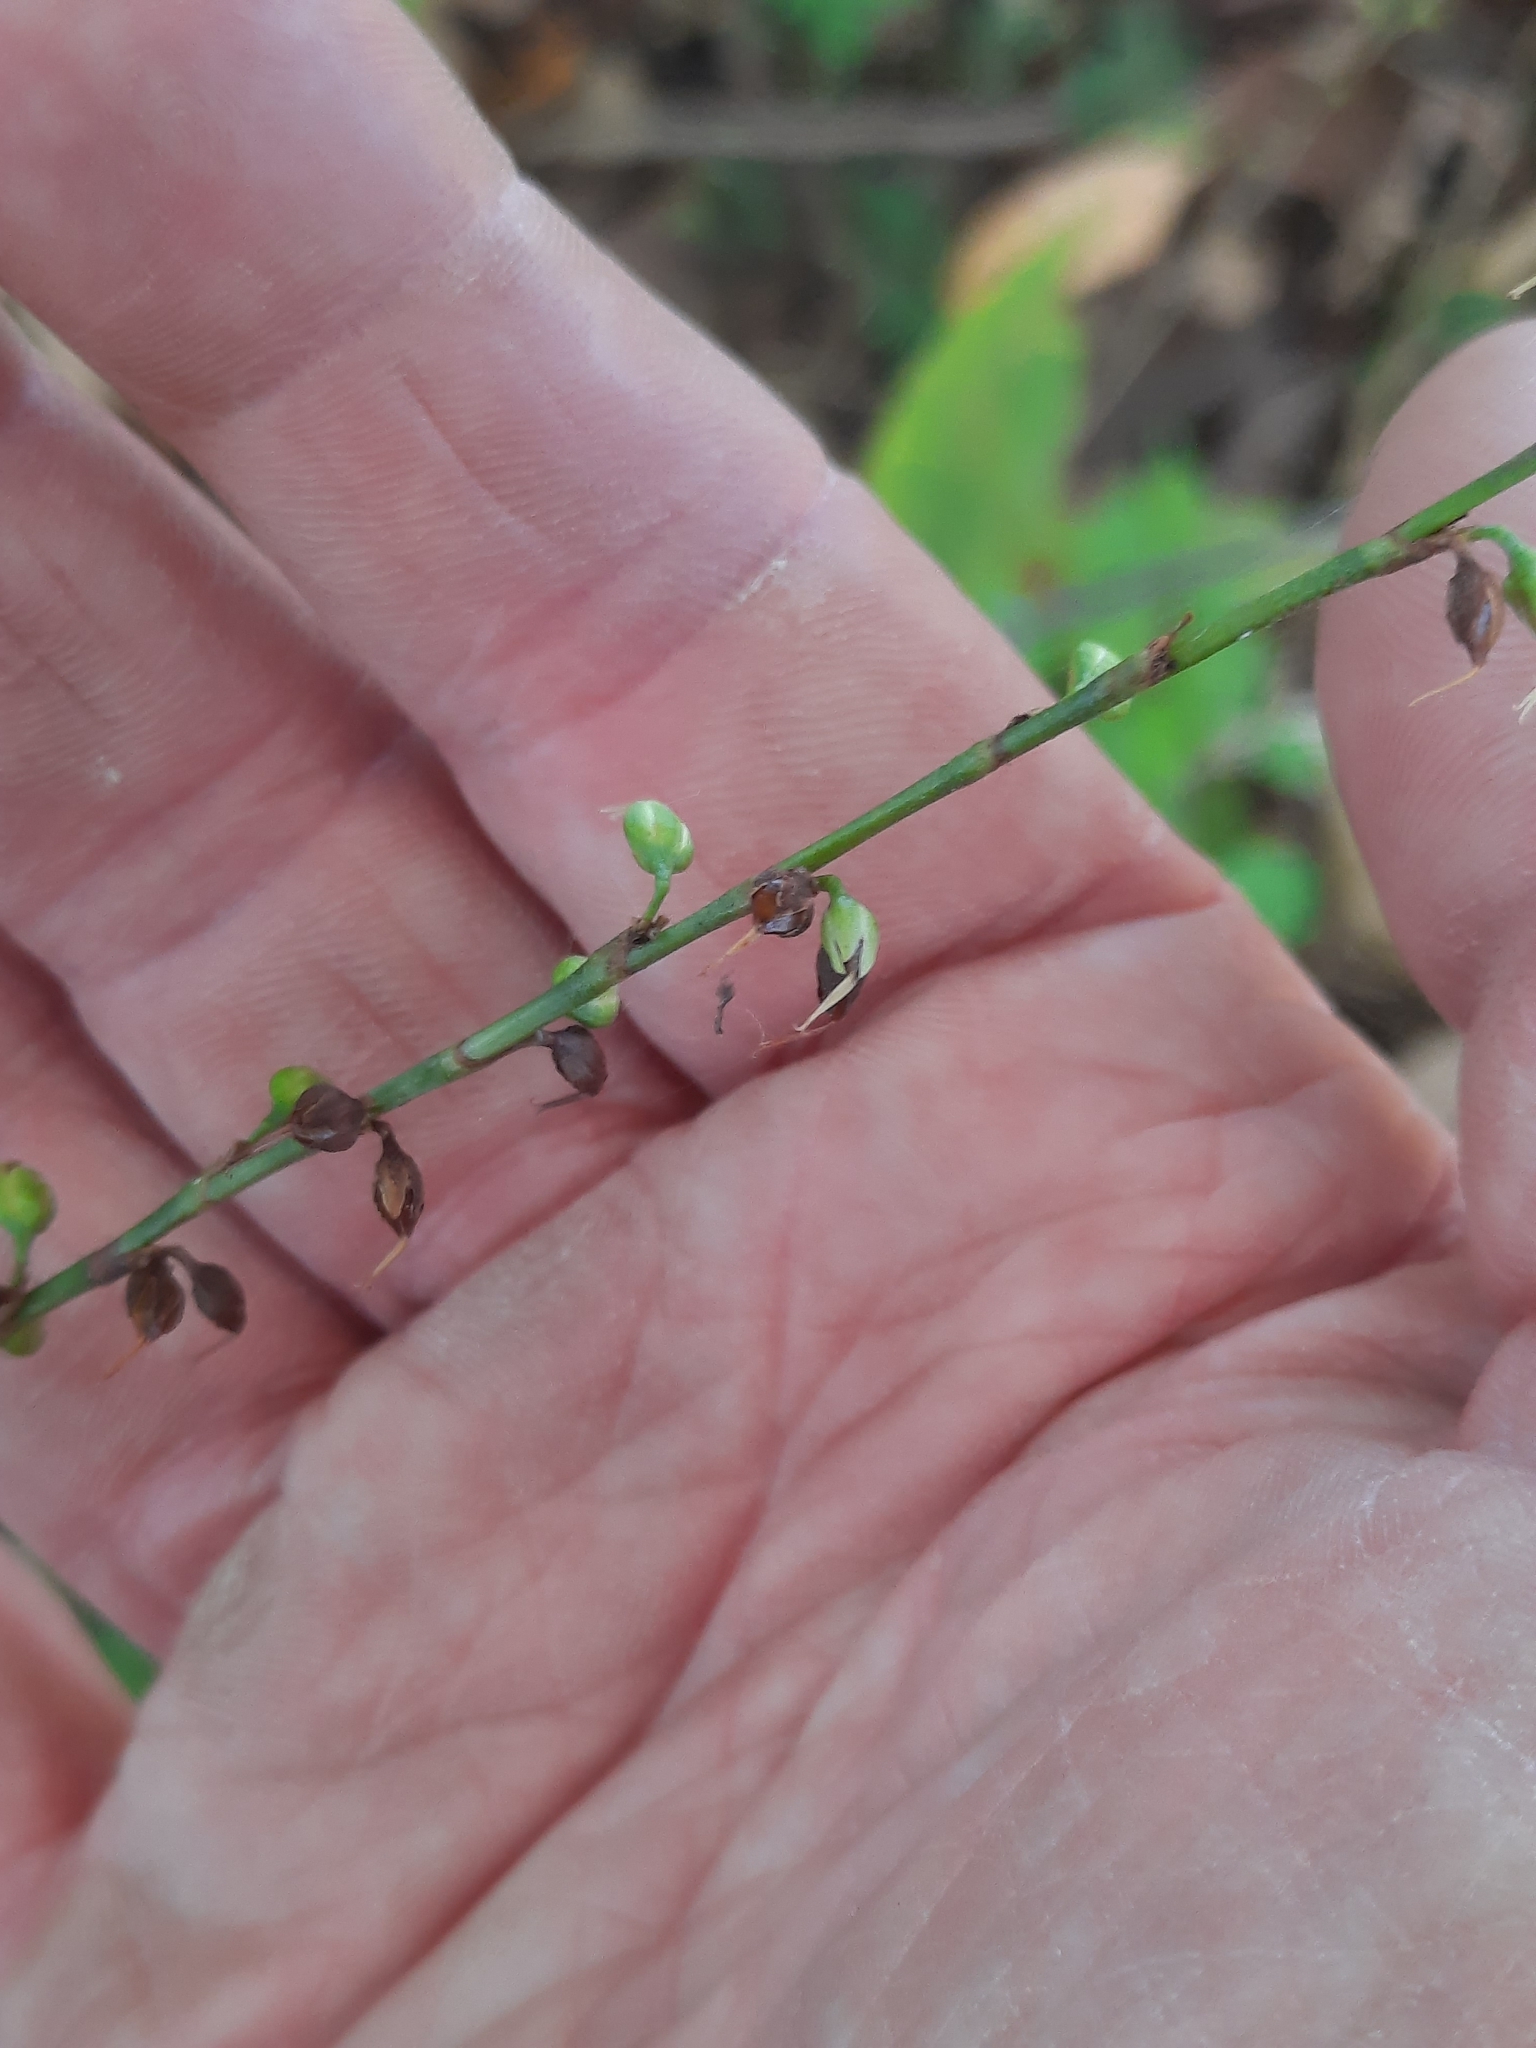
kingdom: Plantae
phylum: Tracheophyta
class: Magnoliopsida
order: Caryophyllales
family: Polygonaceae
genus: Persicaria
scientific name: Persicaria virginiana
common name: Jumpseed
